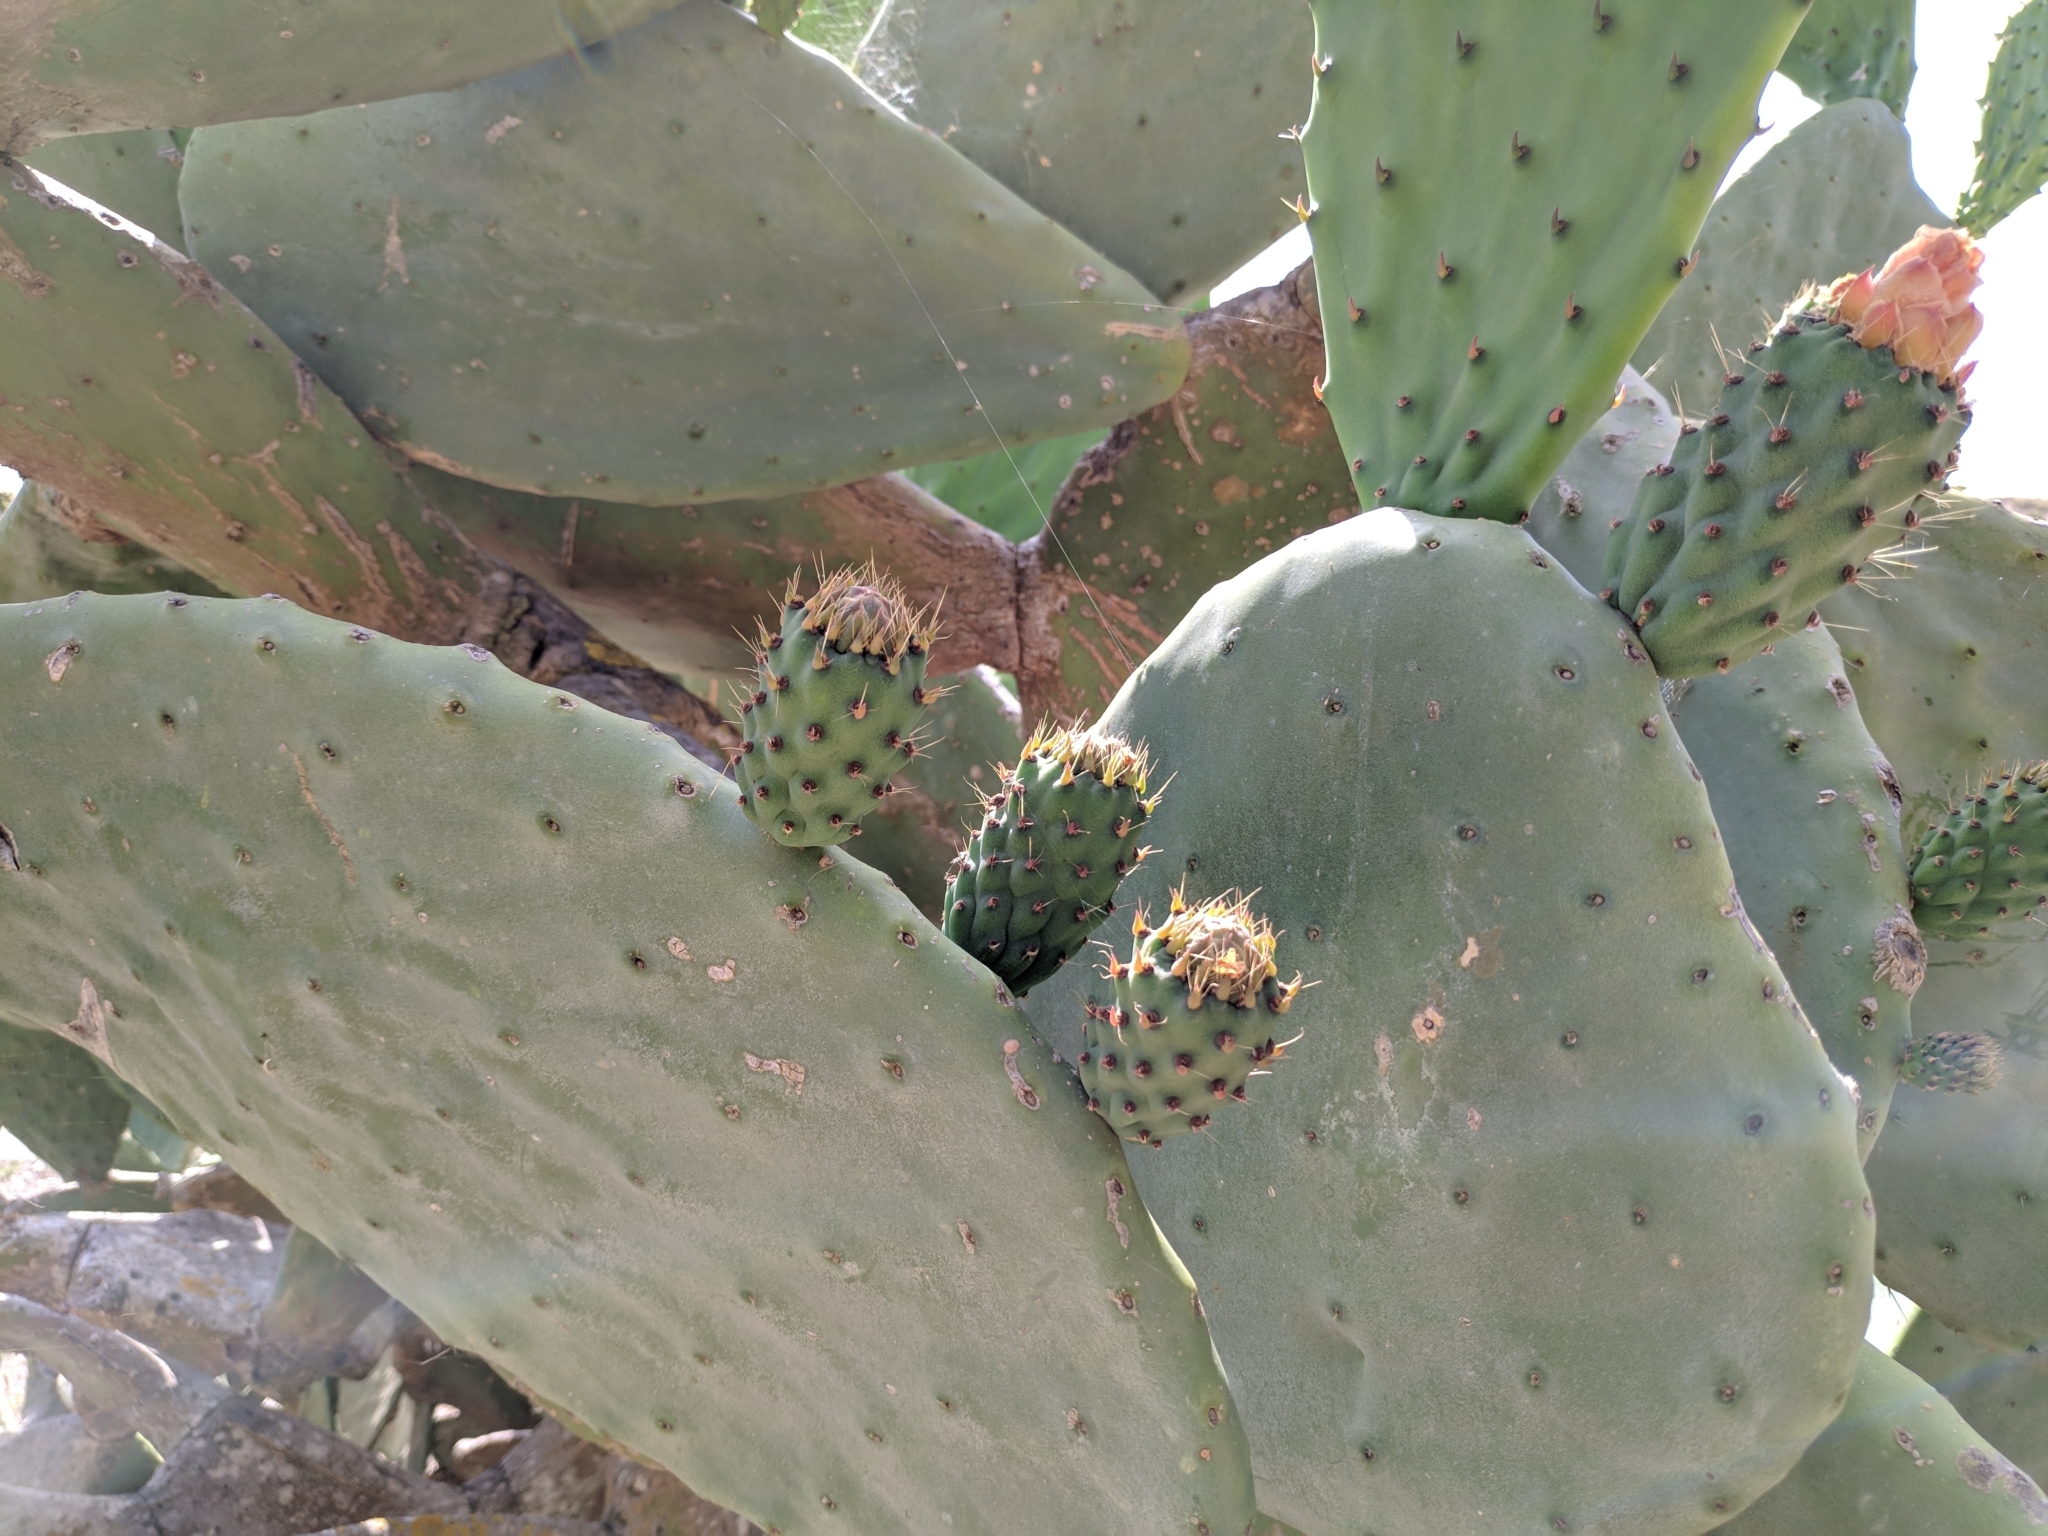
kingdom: Plantae
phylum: Tracheophyta
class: Magnoliopsida
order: Caryophyllales
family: Cactaceae
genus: Opuntia
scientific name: Opuntia ficus-indica
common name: Barbary fig
